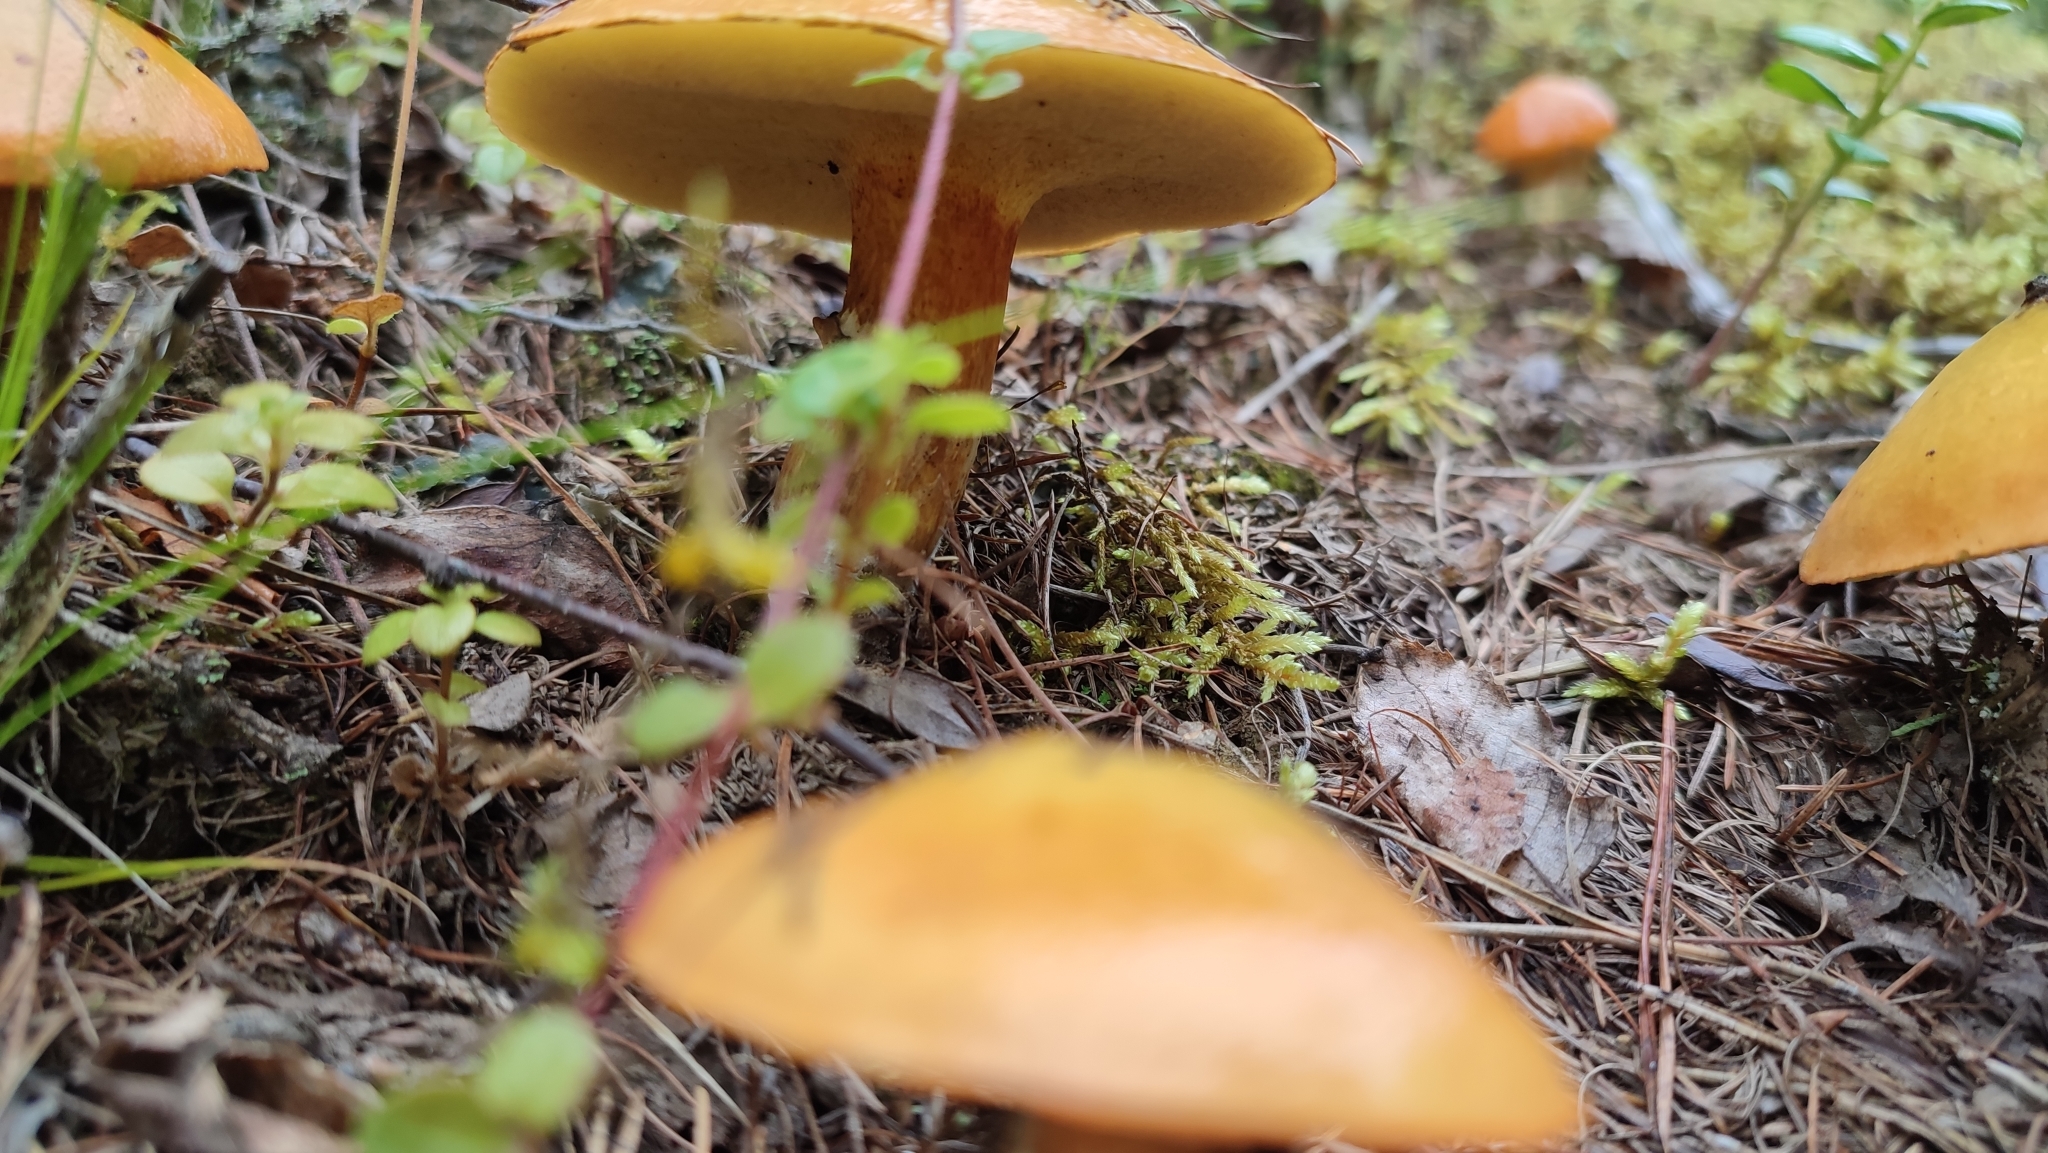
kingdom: Fungi
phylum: Basidiomycota
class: Agaricomycetes
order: Boletales
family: Suillaceae
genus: Suillus
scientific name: Suillus grevillei
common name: Larch bolete
